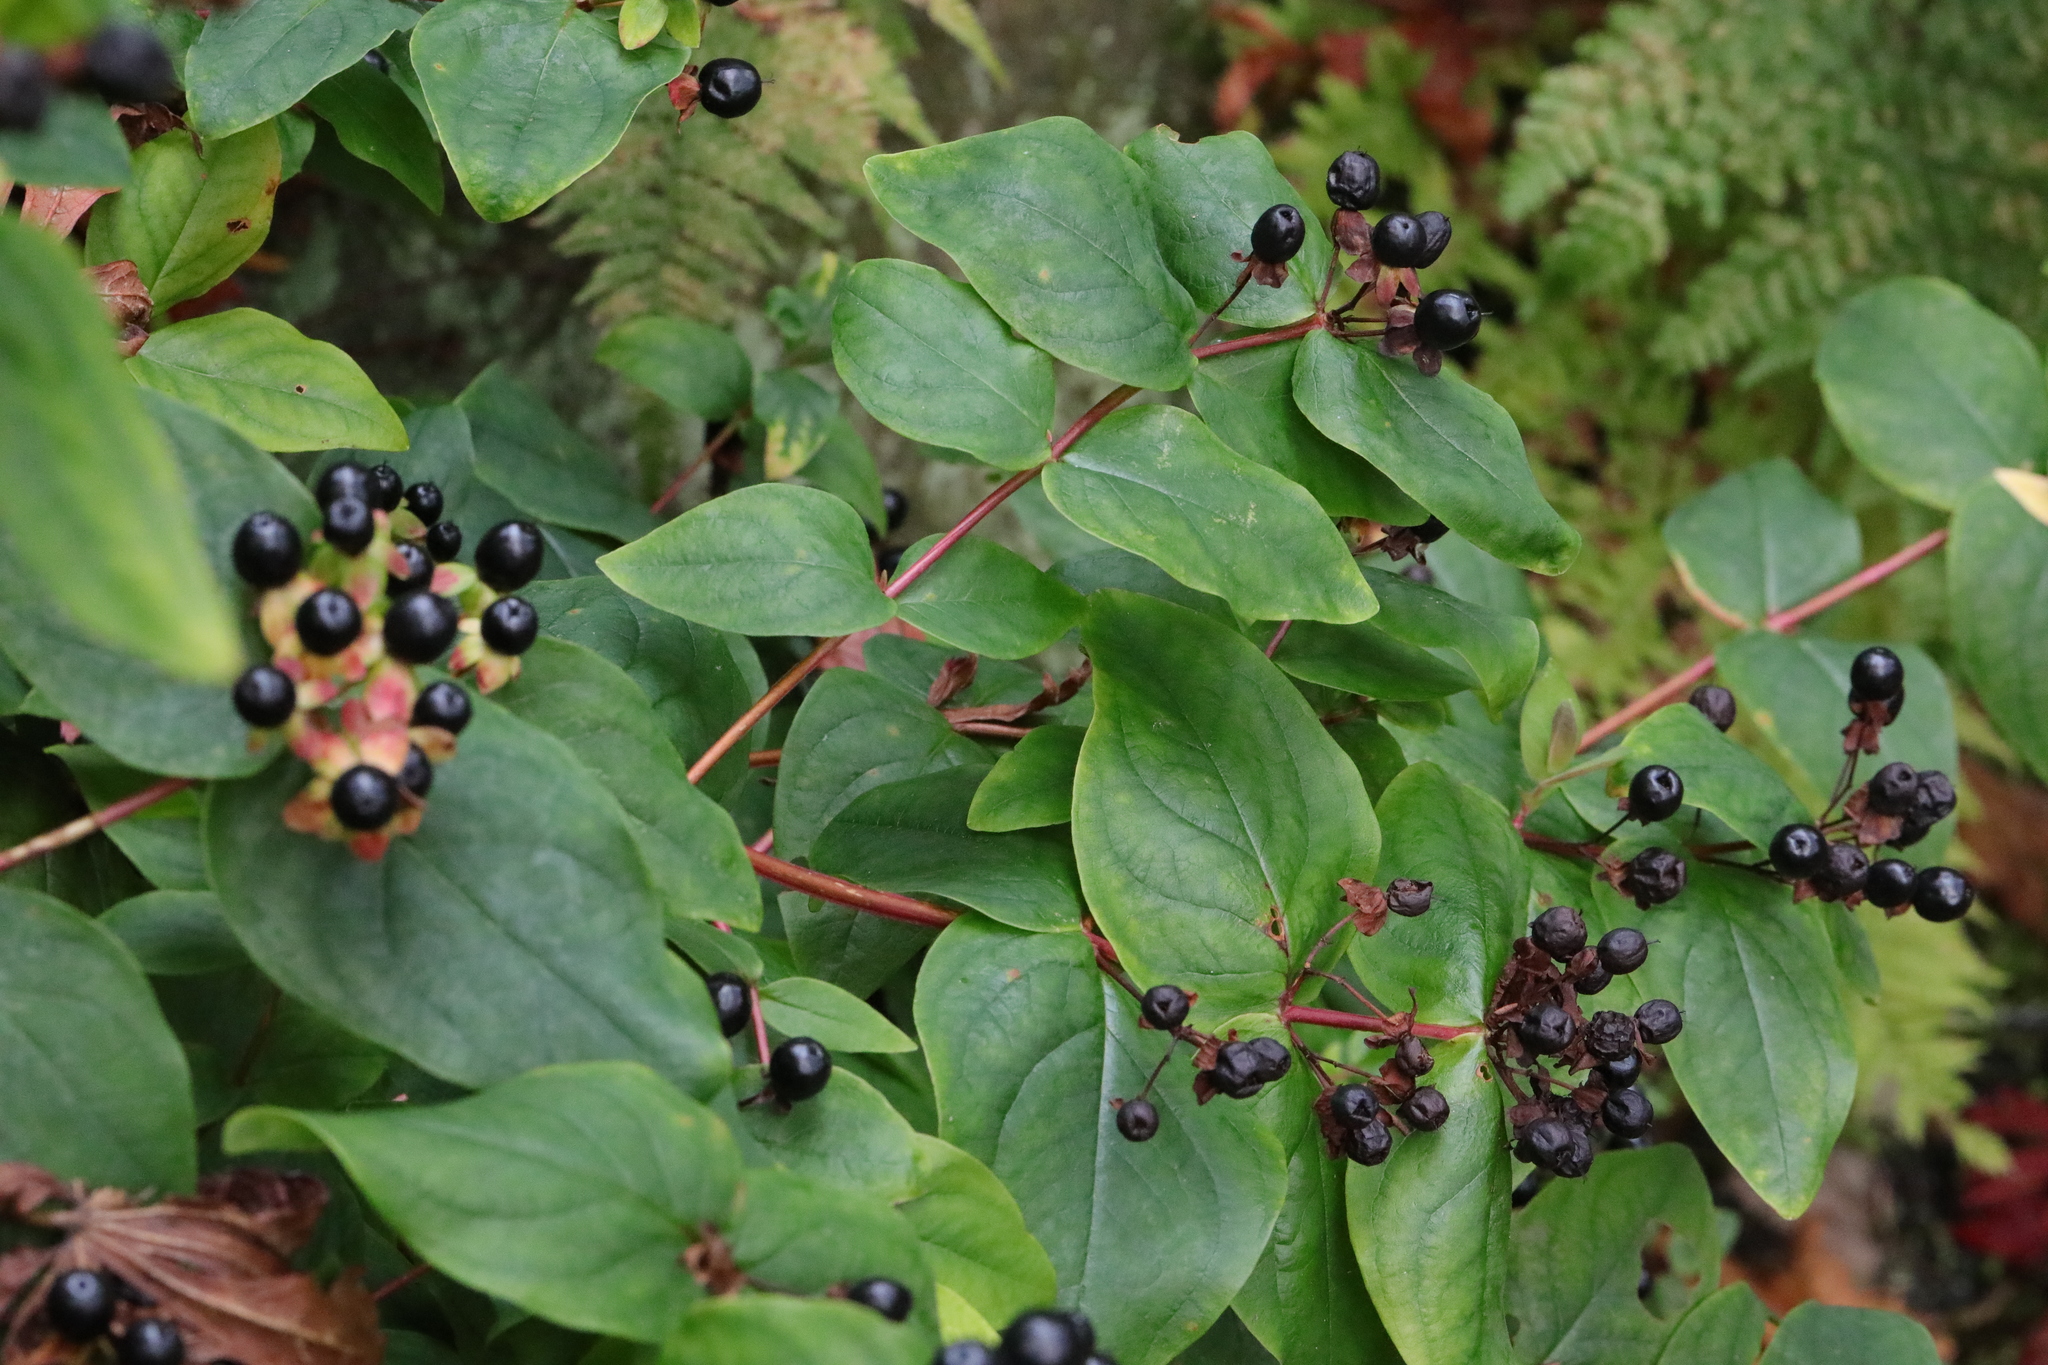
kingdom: Plantae
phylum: Tracheophyta
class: Magnoliopsida
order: Malpighiales
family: Hypericaceae
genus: Hypericum
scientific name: Hypericum androsaemum
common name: Sweet-amber
